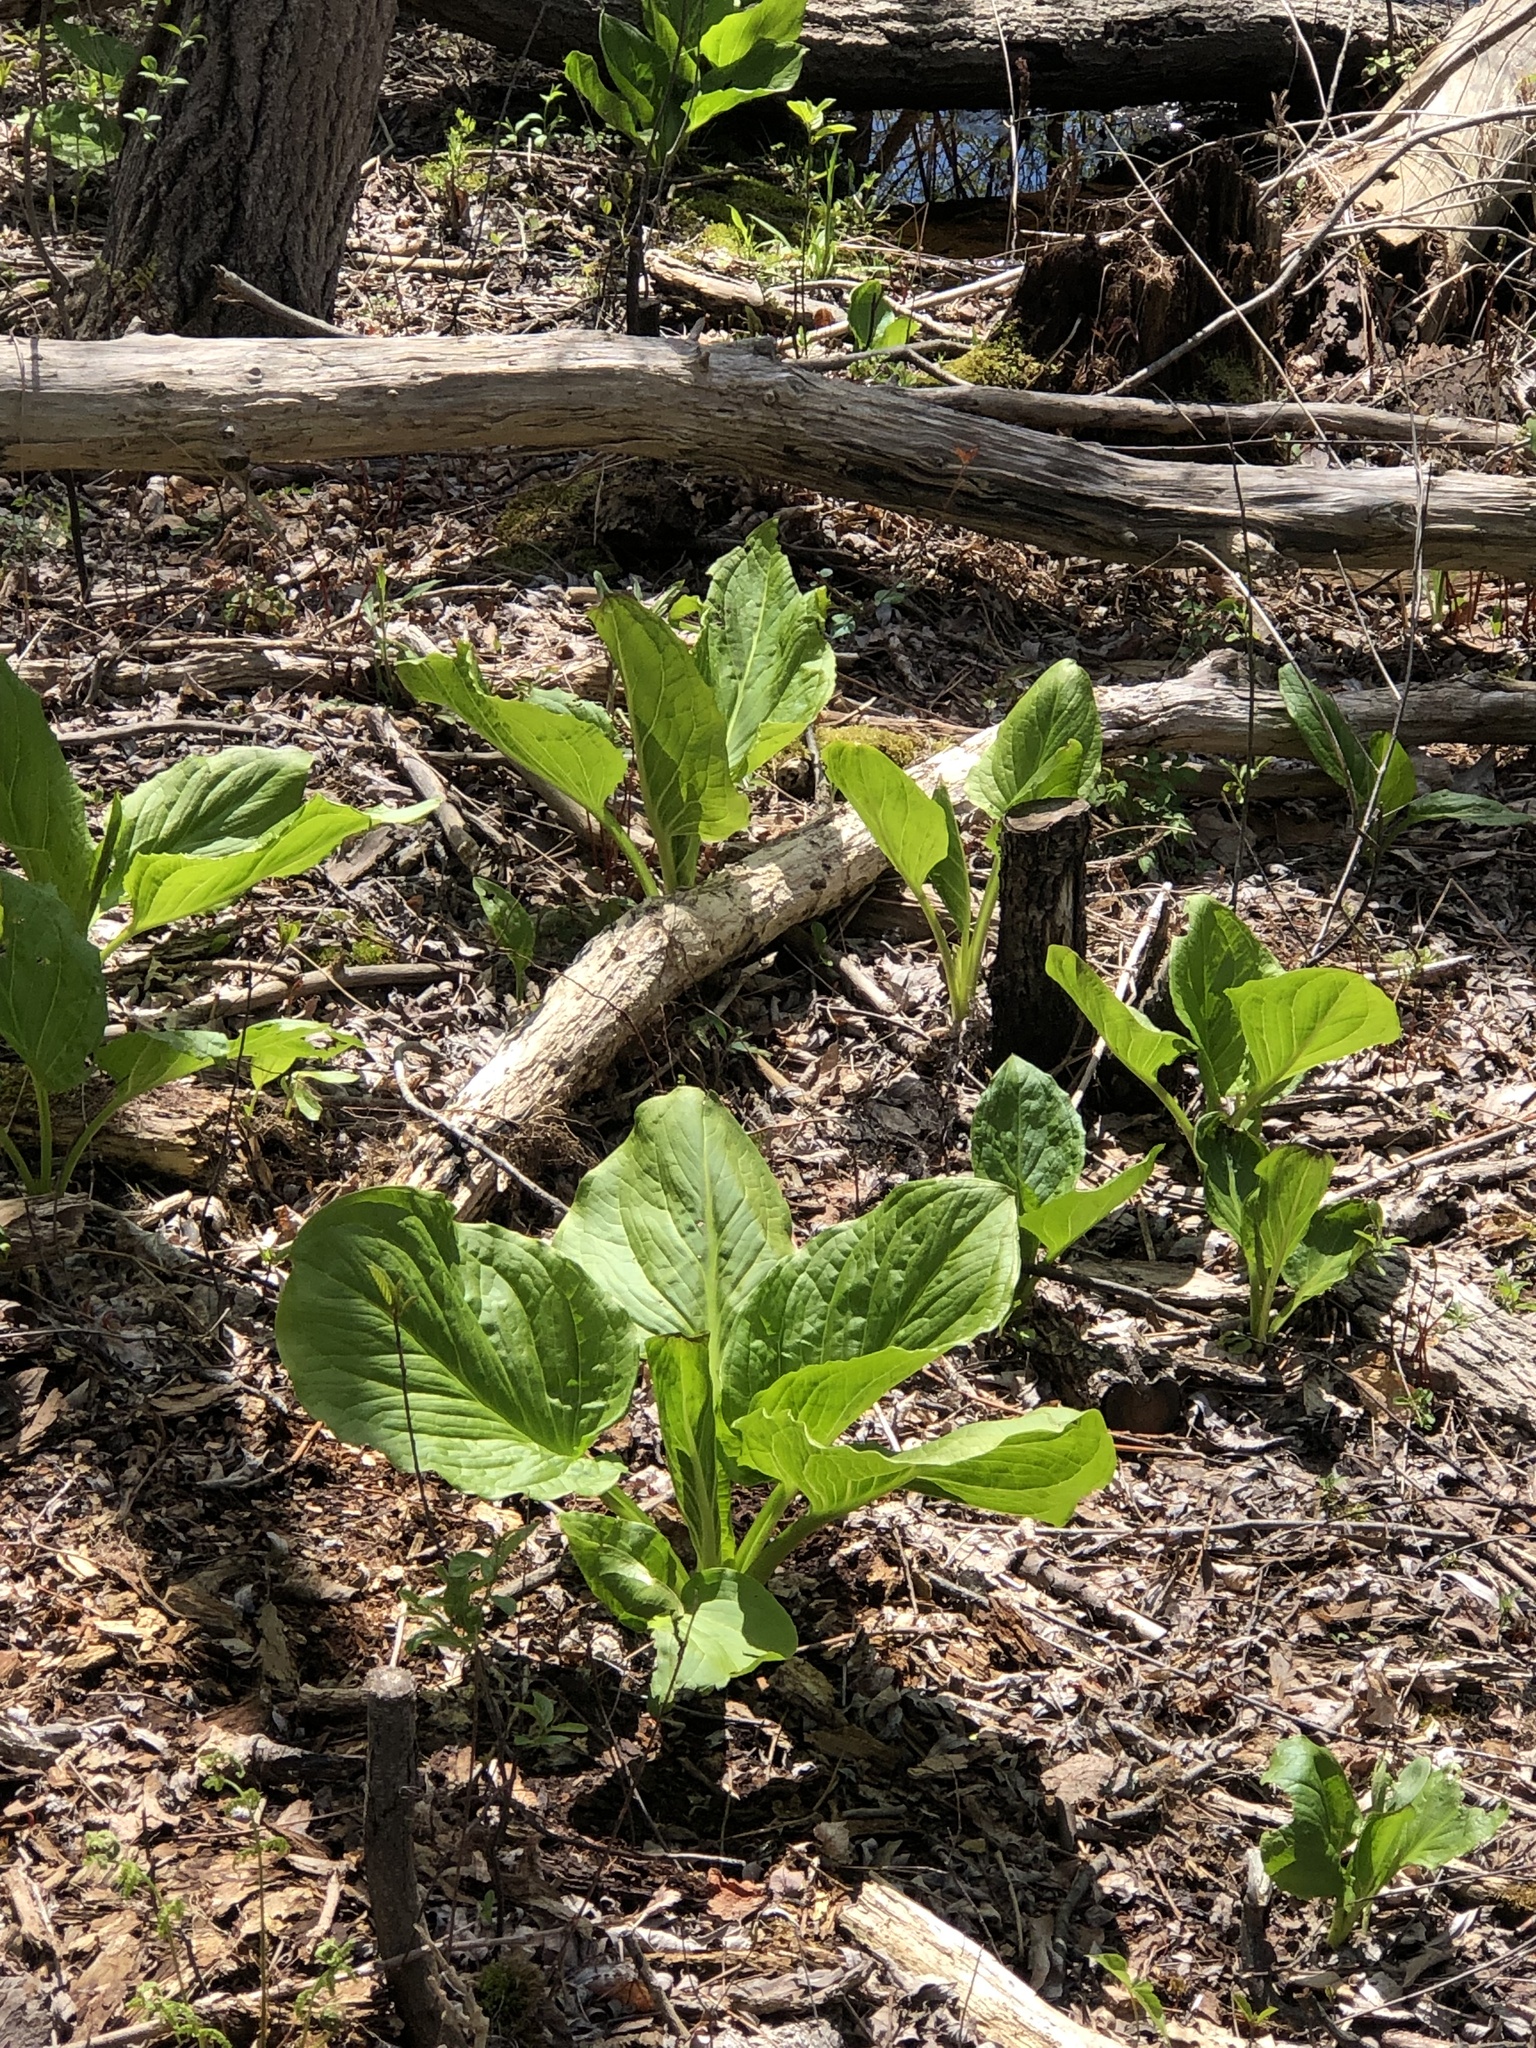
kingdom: Plantae
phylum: Tracheophyta
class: Liliopsida
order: Alismatales
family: Araceae
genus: Symplocarpus
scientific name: Symplocarpus foetidus
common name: Eastern skunk cabbage
